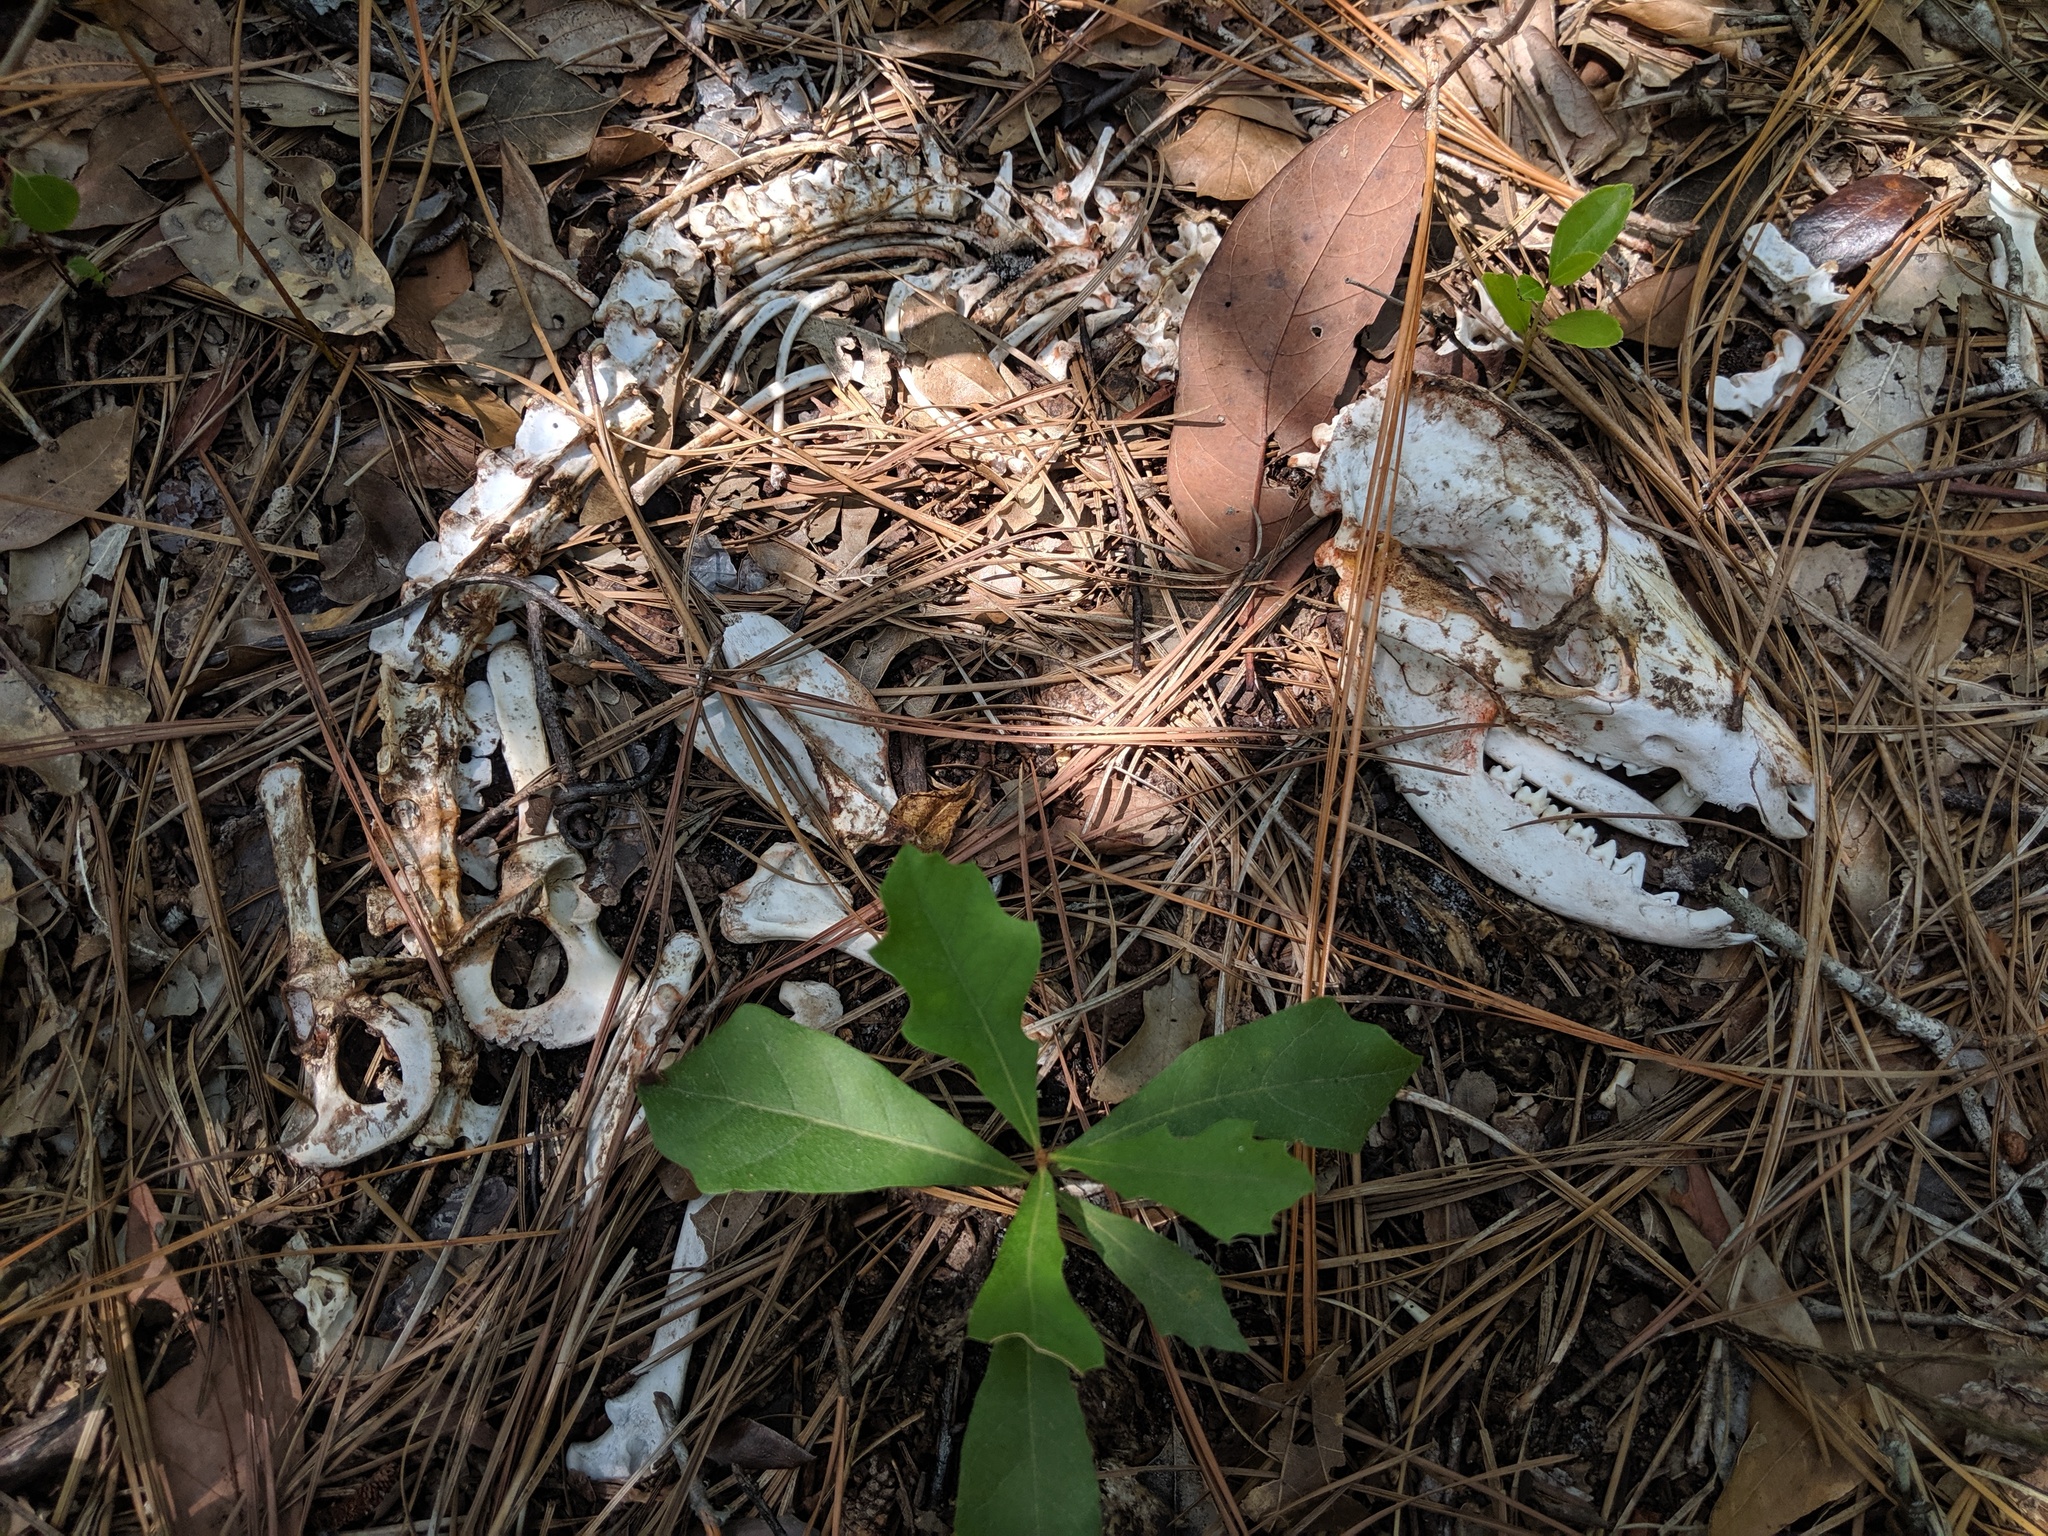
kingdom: Animalia
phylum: Chordata
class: Mammalia
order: Didelphimorphia
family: Didelphidae
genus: Didelphis
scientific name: Didelphis virginiana
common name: Virginia opossum
